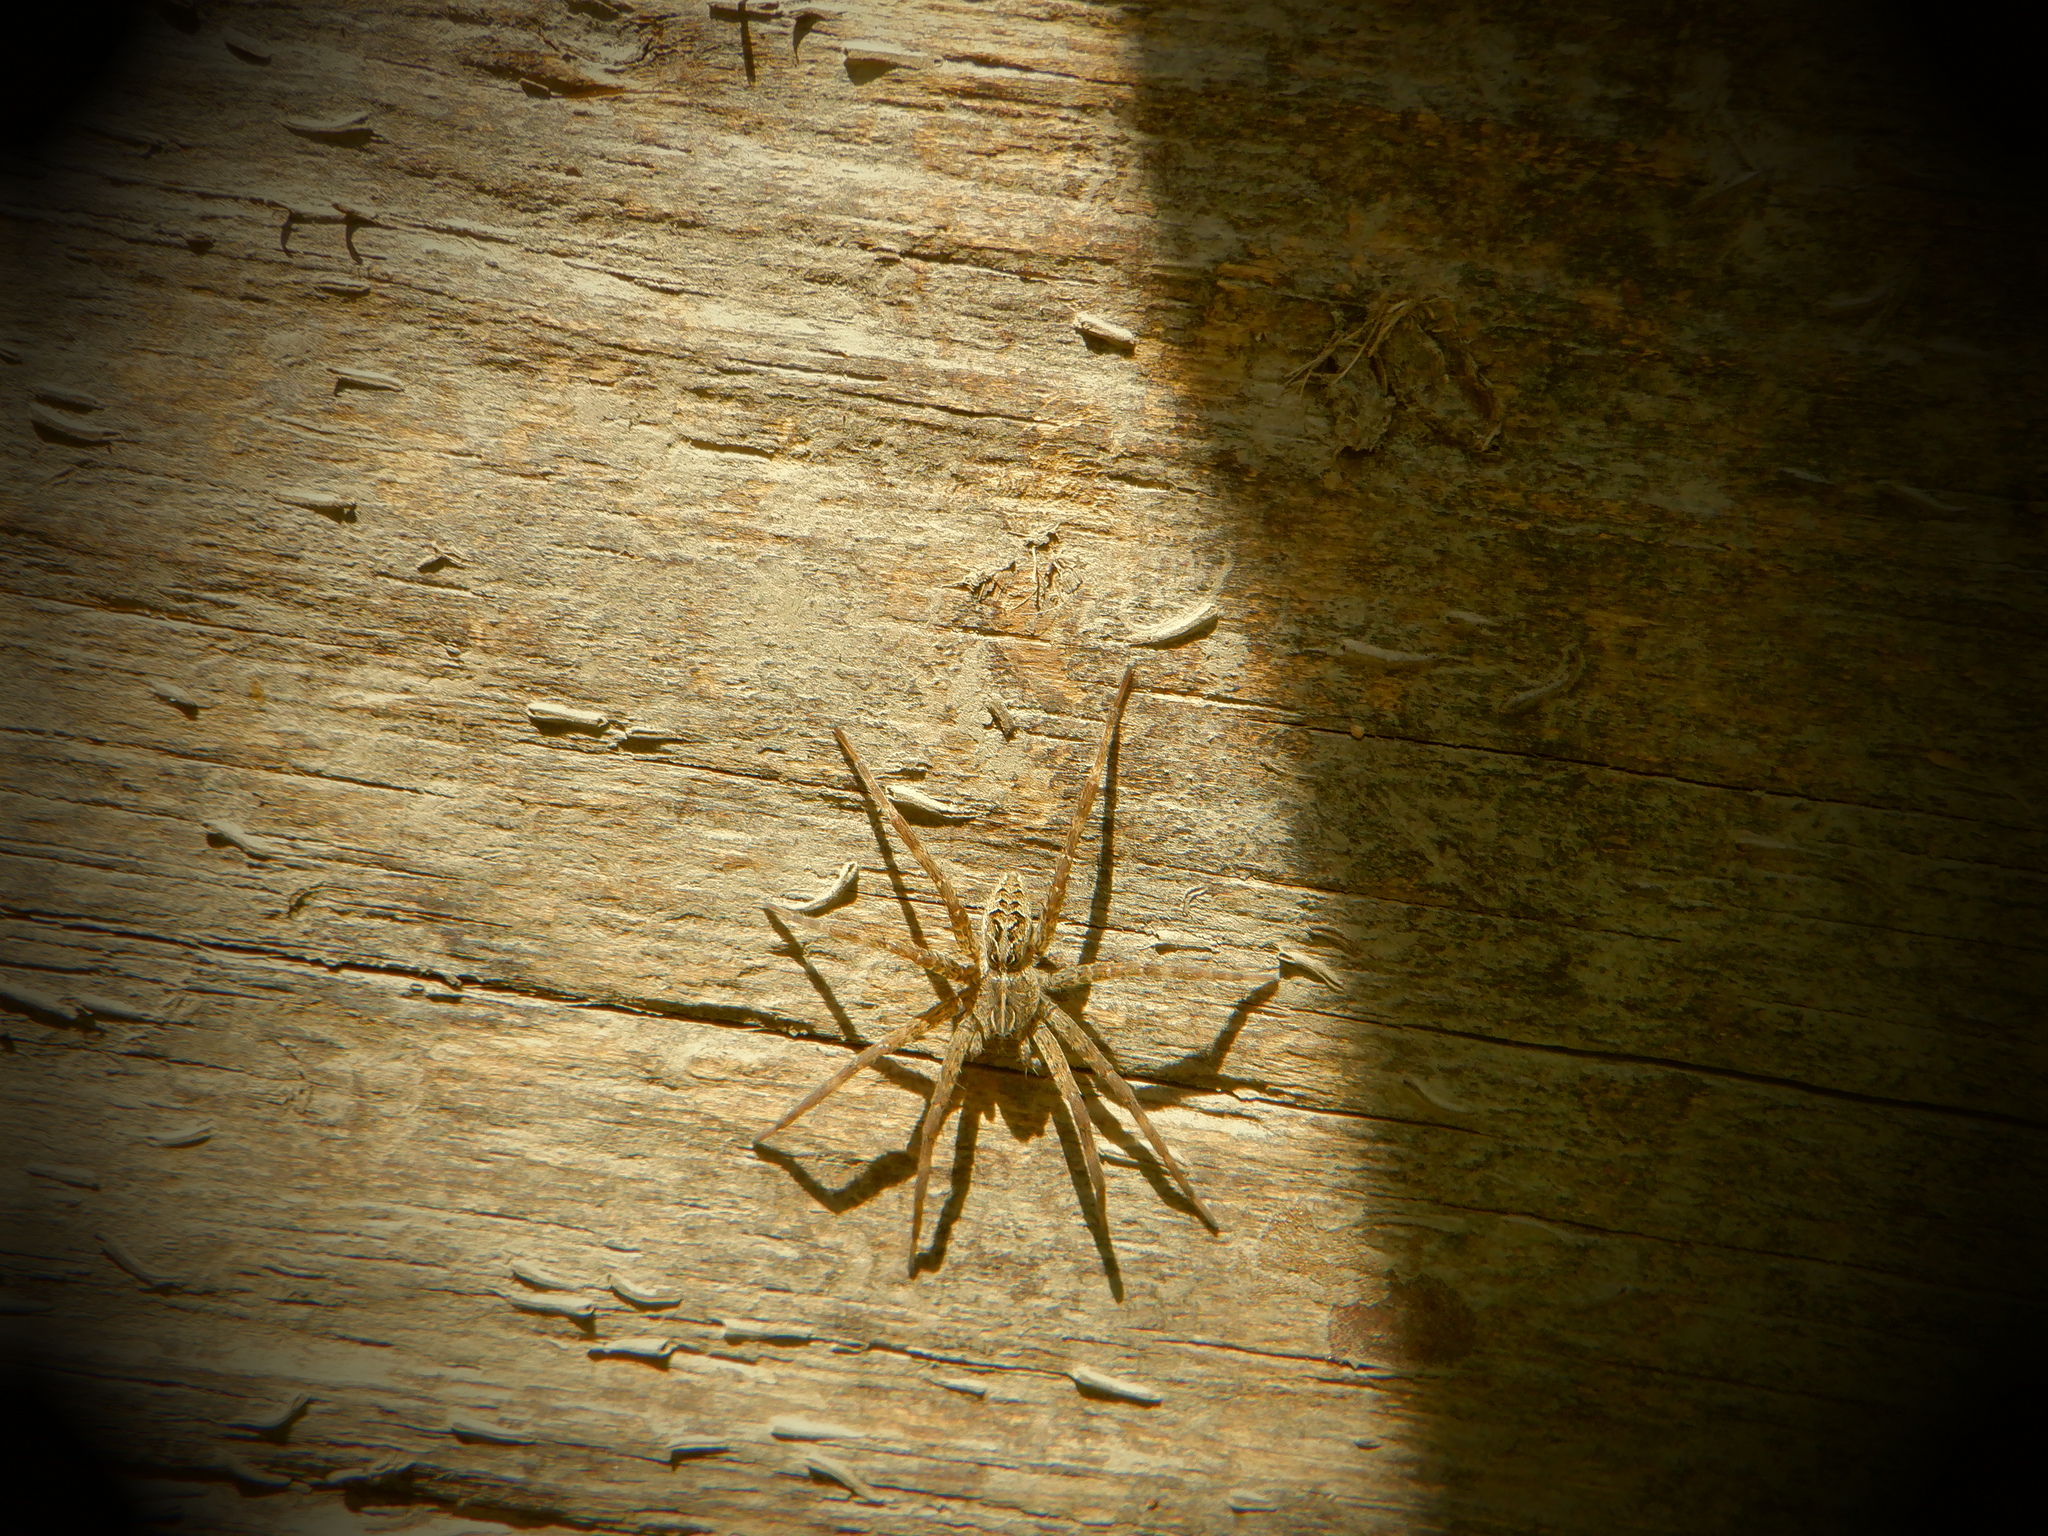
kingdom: Animalia
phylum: Arthropoda
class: Arachnida
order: Araneae
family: Pisauridae
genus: Dolomedes
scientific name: Dolomedes scriptus
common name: Striped fishing spider
